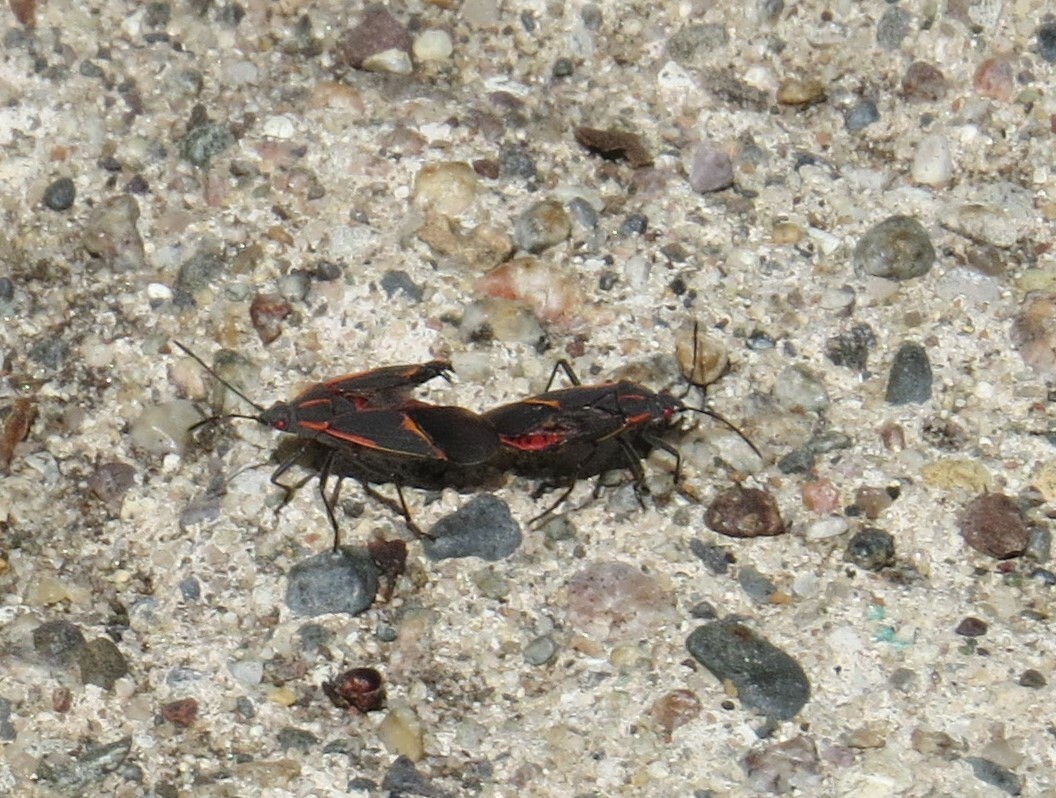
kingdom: Animalia
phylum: Arthropoda
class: Insecta
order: Hemiptera
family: Rhopalidae
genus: Boisea
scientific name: Boisea trivittata
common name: Boxelder bug
